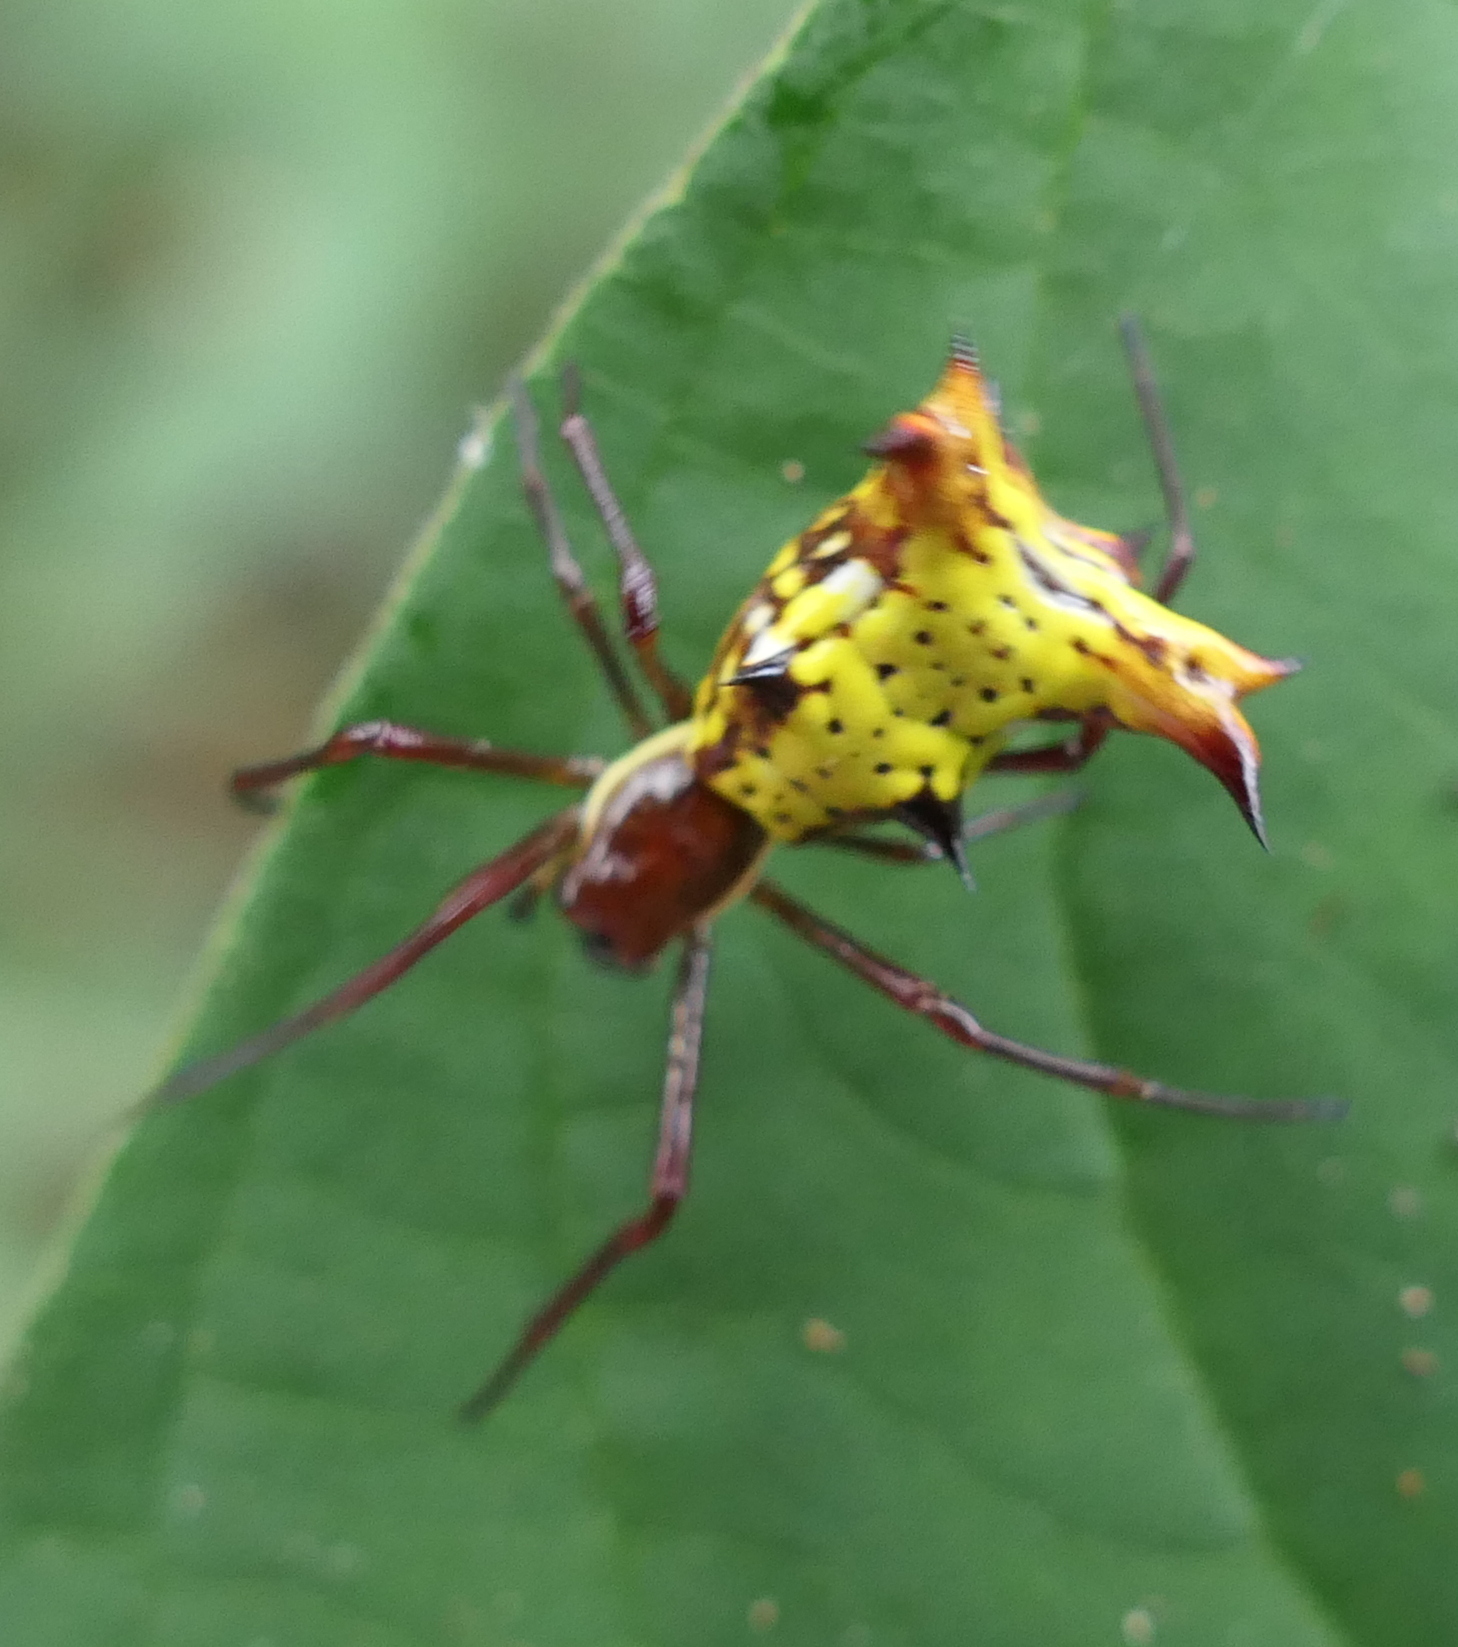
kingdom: Animalia
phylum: Arthropoda
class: Arachnida
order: Araneae
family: Araneidae
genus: Micrathena
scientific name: Micrathena fissispina
